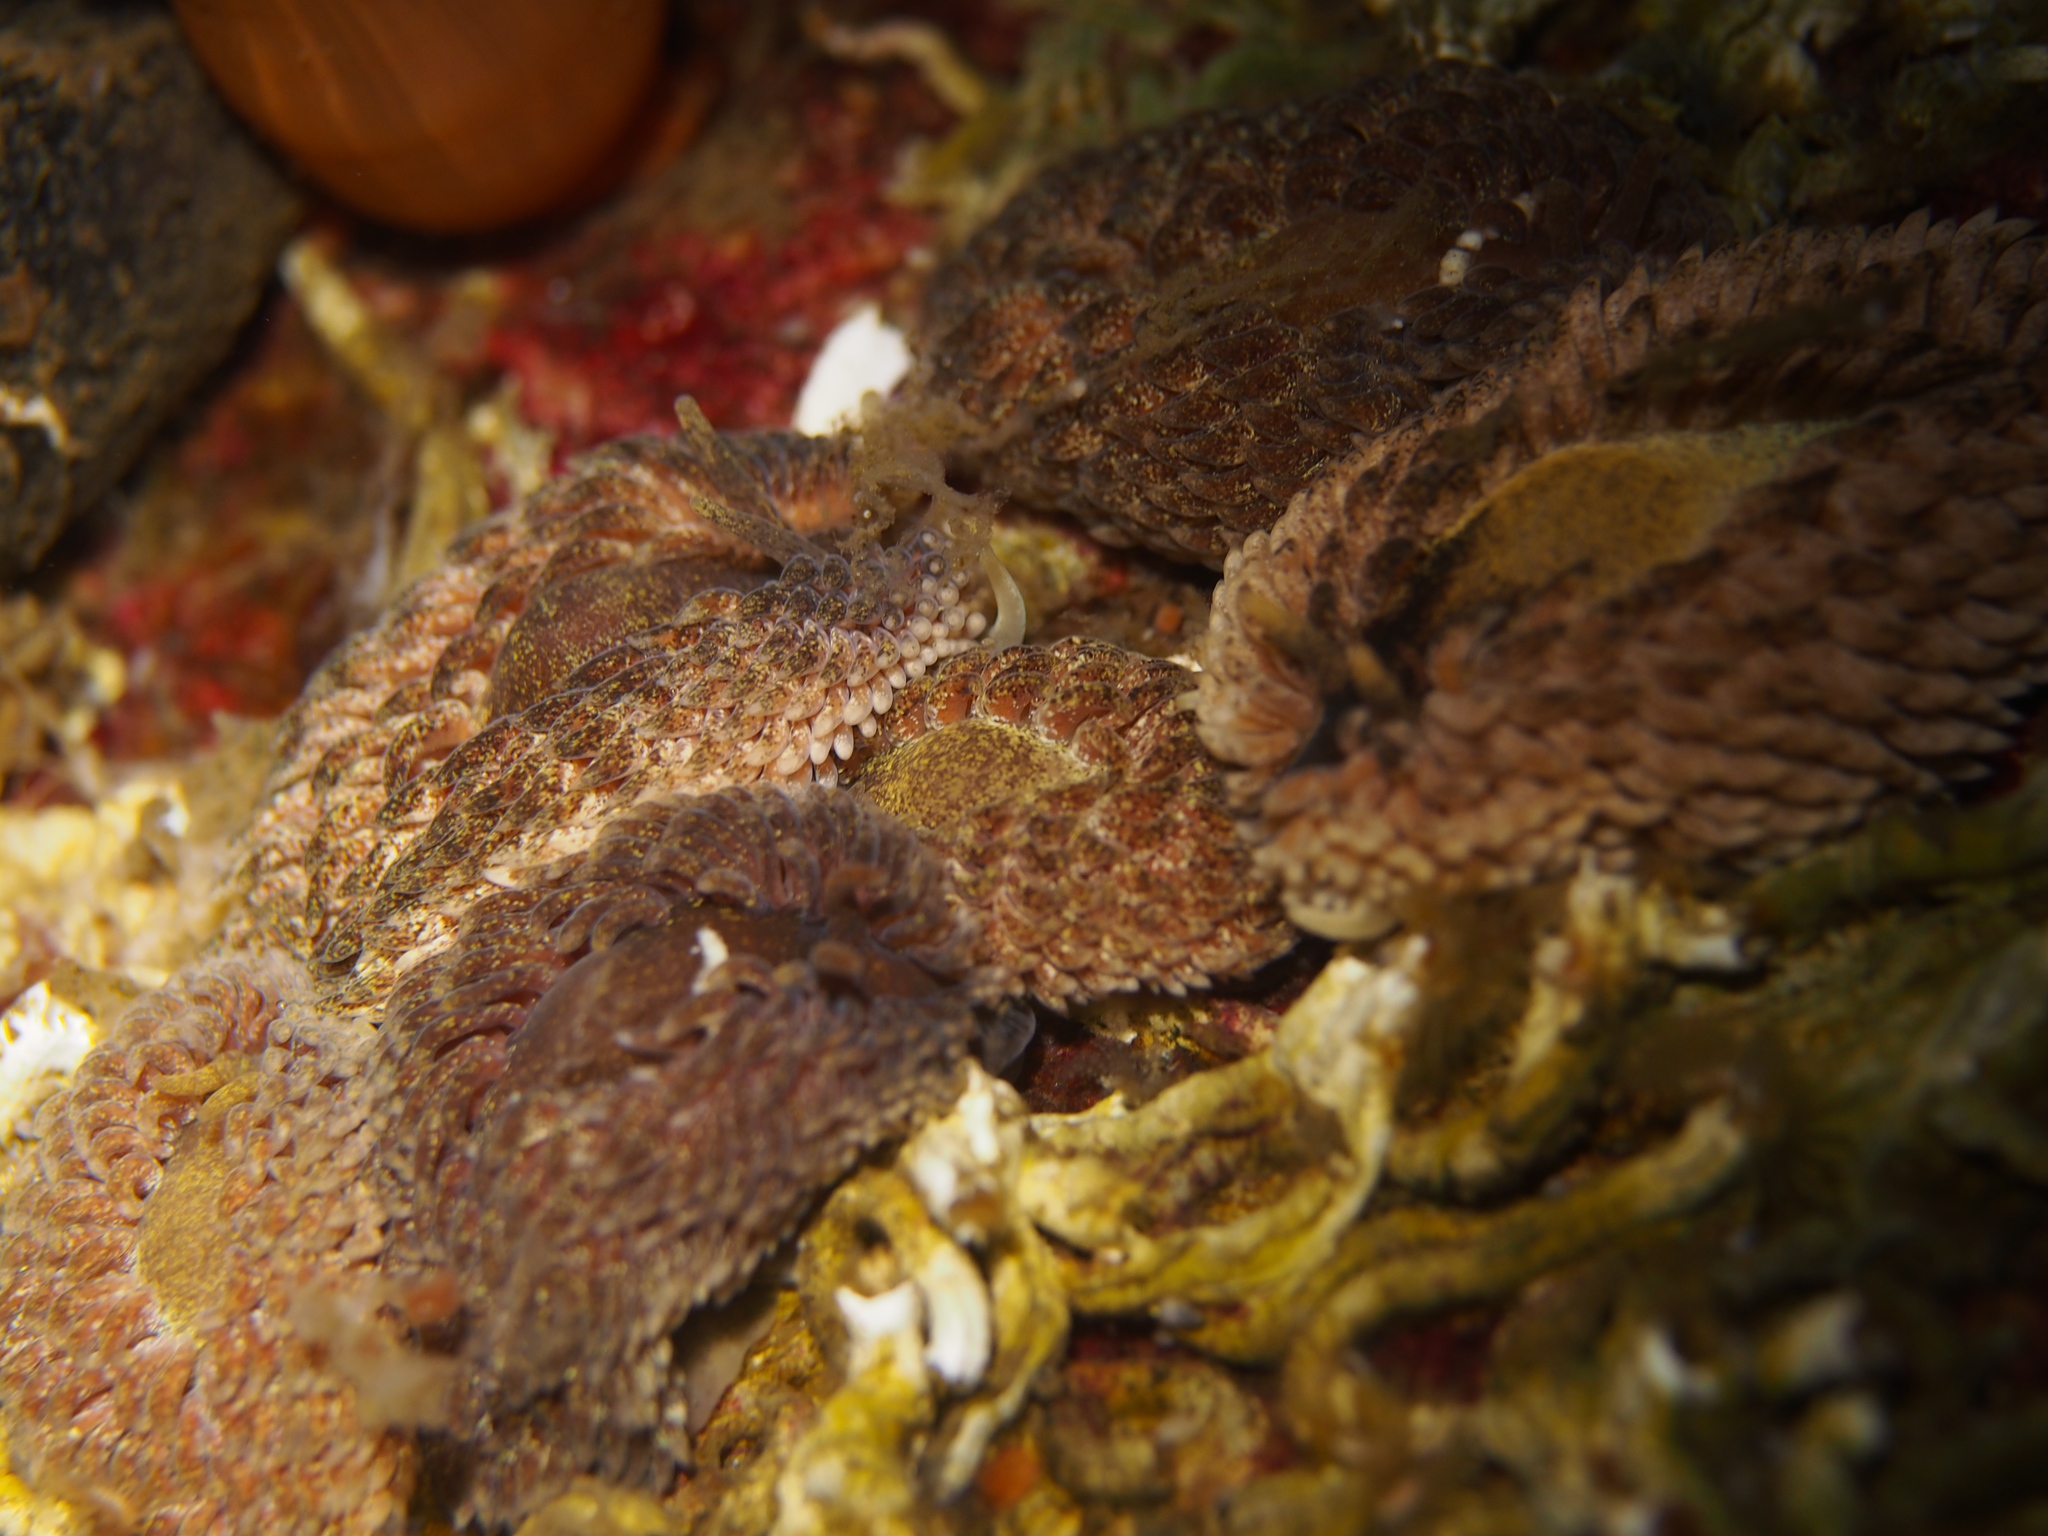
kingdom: Animalia
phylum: Mollusca
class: Gastropoda
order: Nudibranchia
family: Aeolidiidae
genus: Aeolidia
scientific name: Aeolidia papillosa
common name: Common grey sea slug
